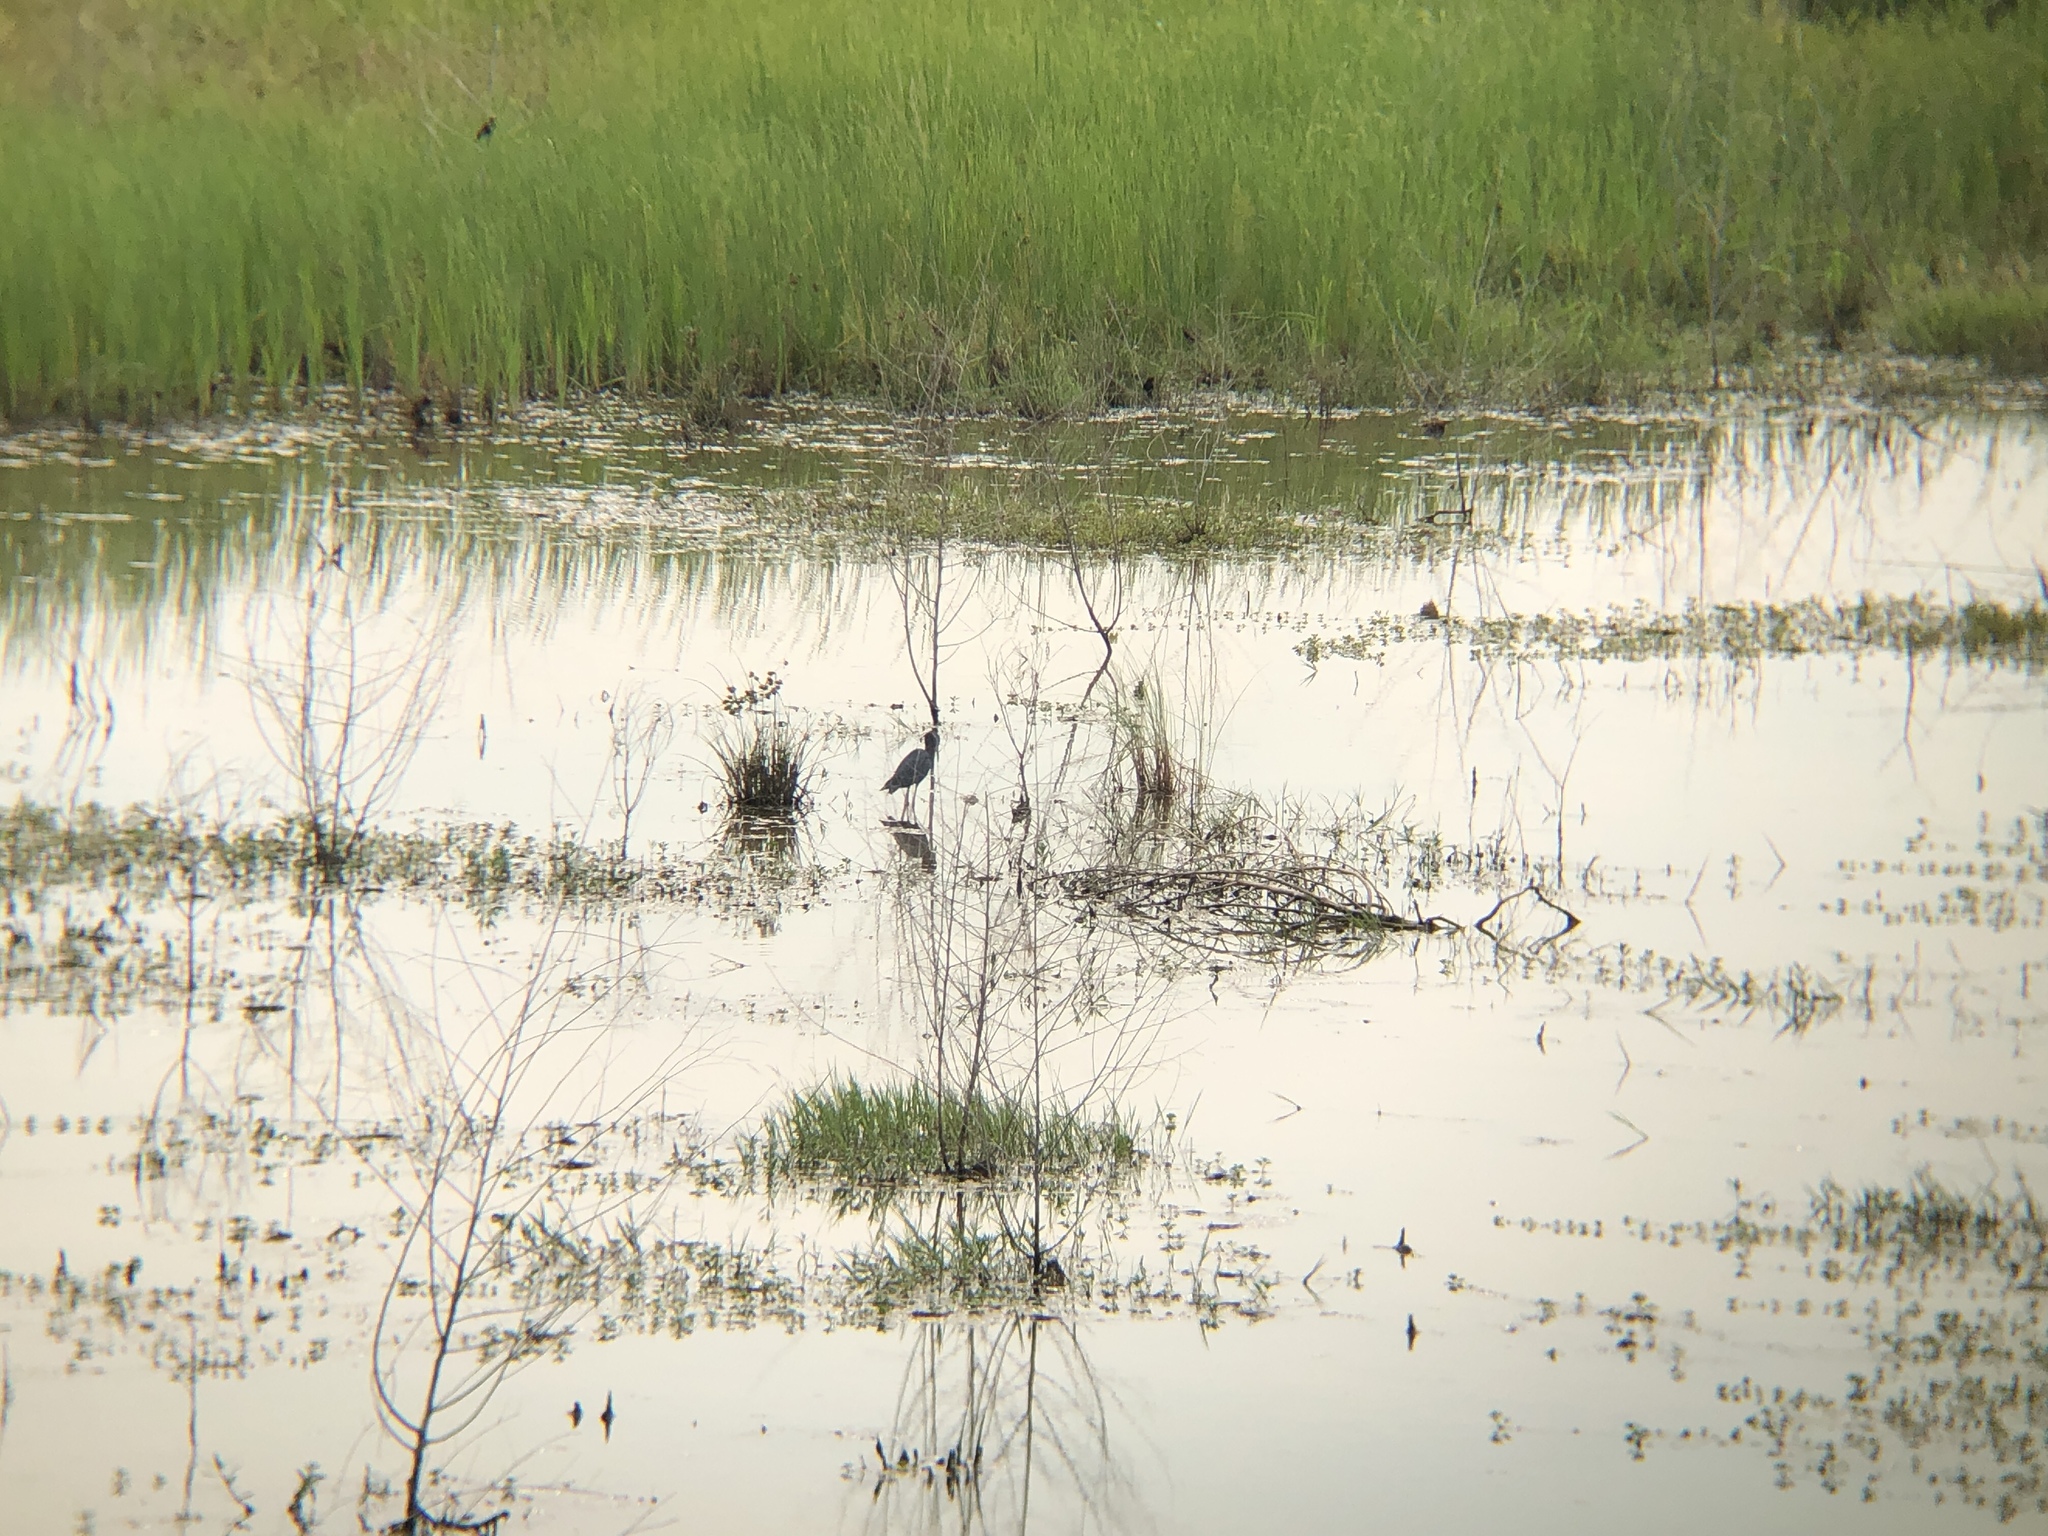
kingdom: Animalia
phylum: Chordata
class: Aves
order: Pelecaniformes
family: Ardeidae
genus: Egretta
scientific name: Egretta caerulea
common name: Little blue heron
